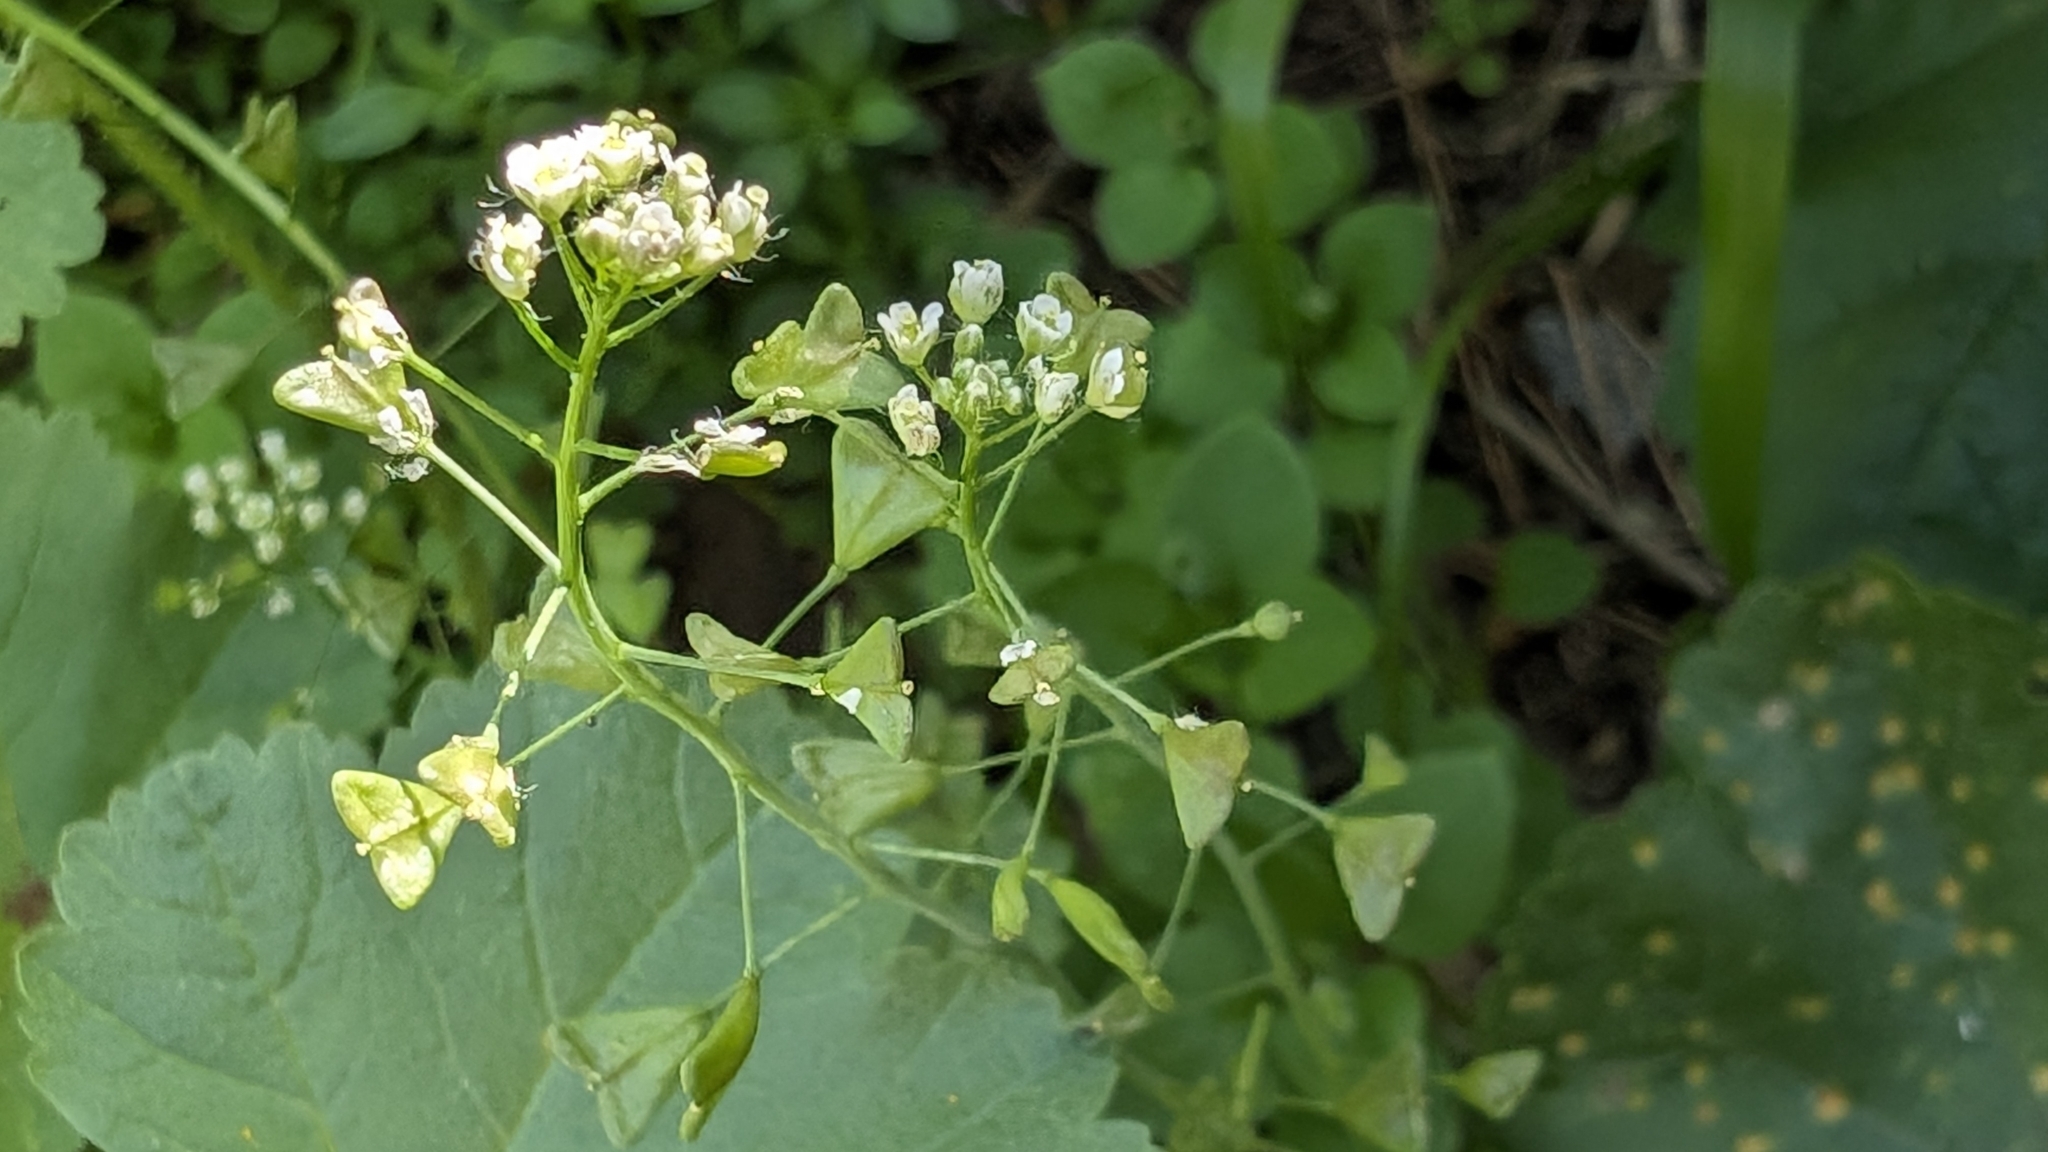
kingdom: Plantae
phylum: Tracheophyta
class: Magnoliopsida
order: Brassicales
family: Brassicaceae
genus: Capsella
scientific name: Capsella bursa-pastoris
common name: Shepherd's purse
